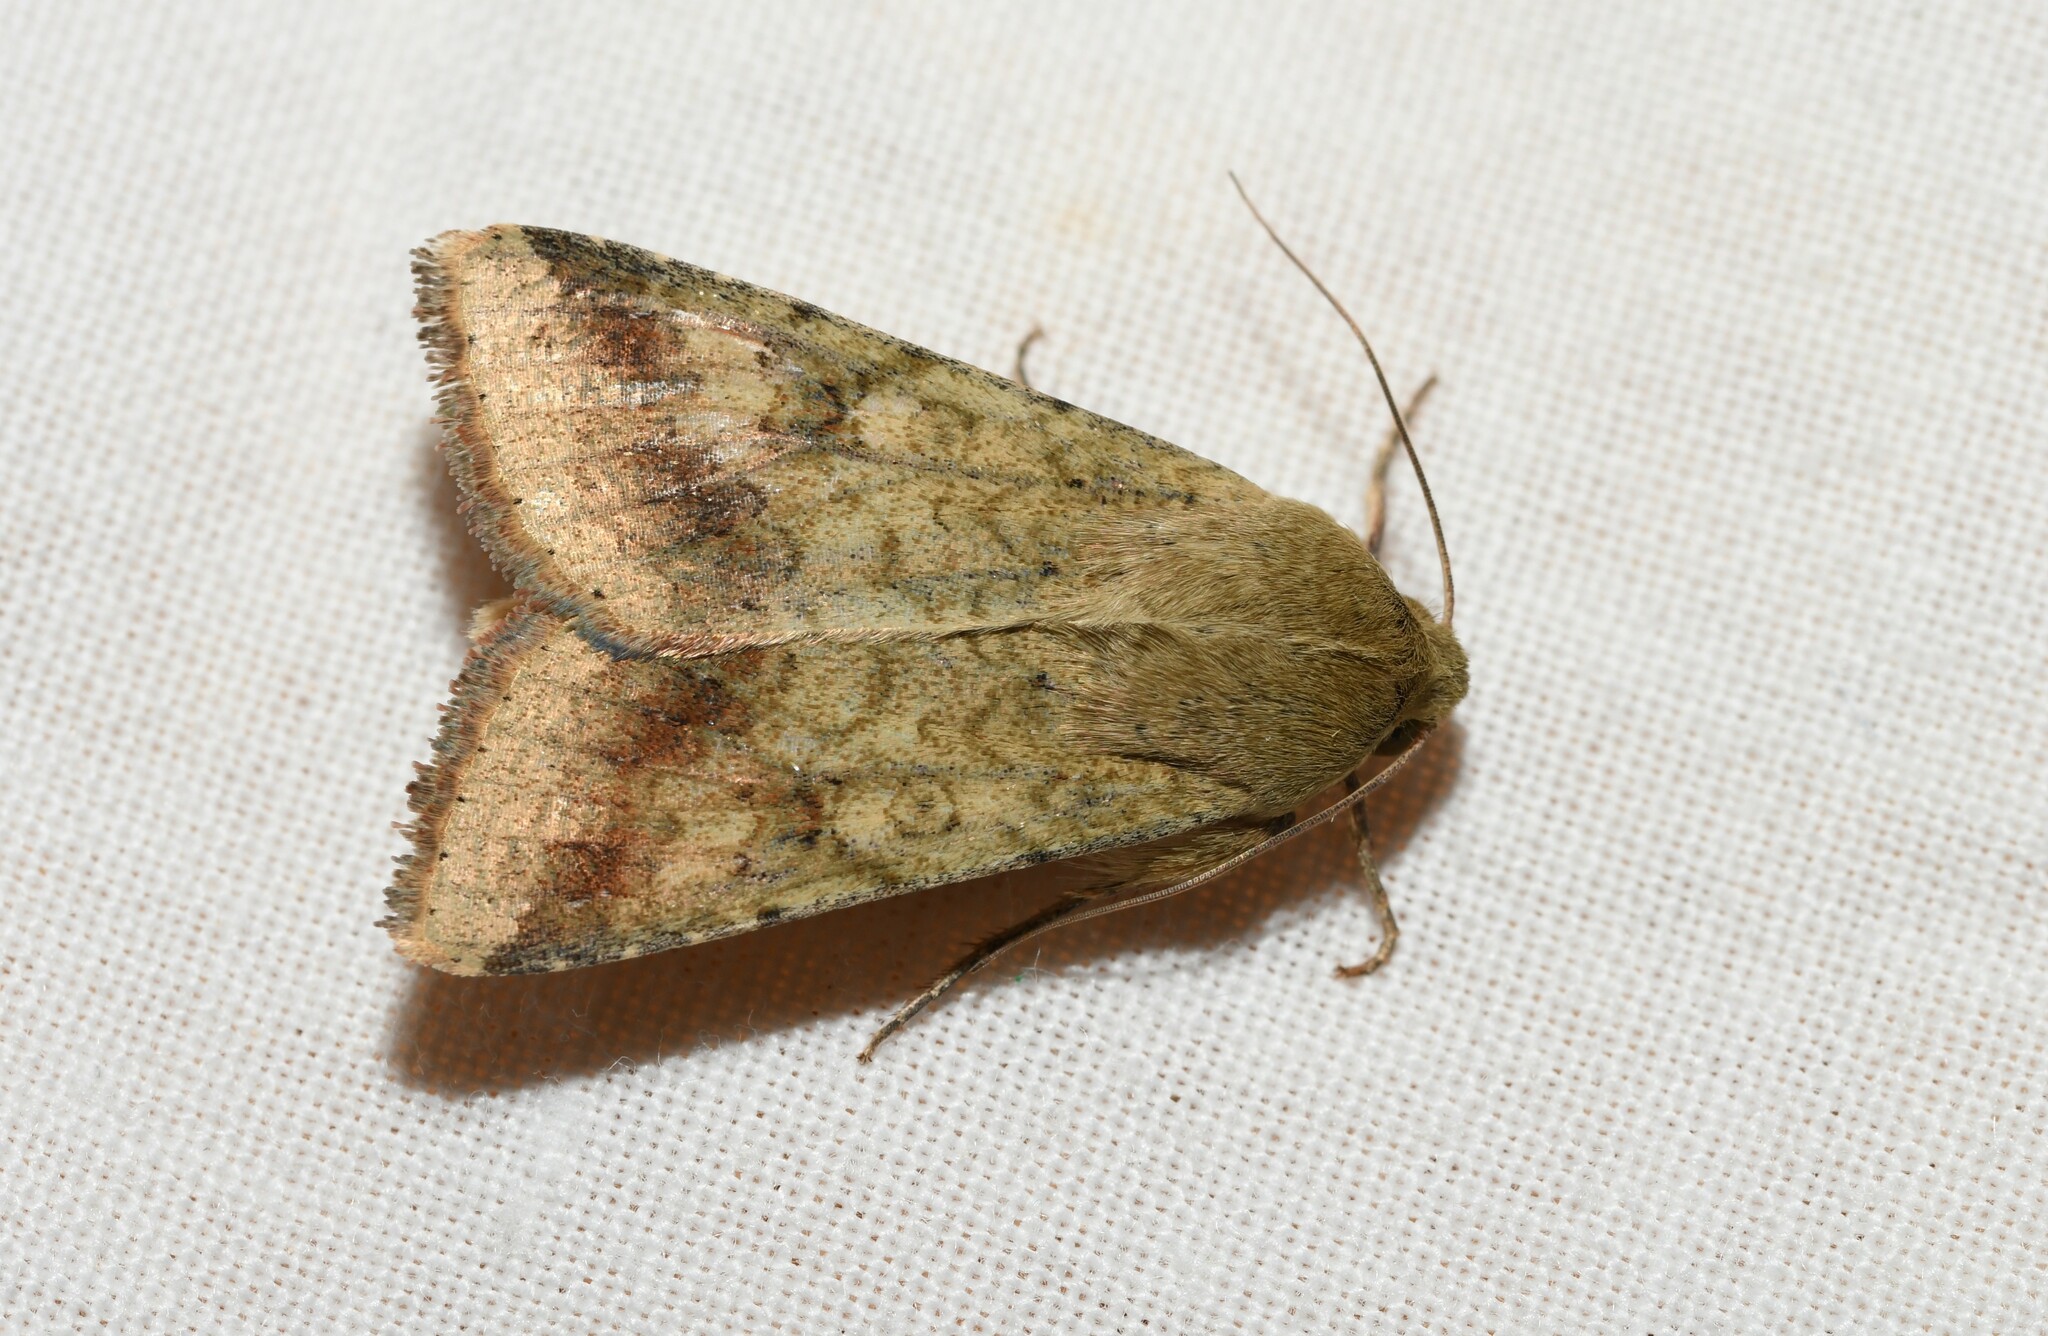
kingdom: Animalia
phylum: Arthropoda
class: Insecta
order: Lepidoptera
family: Noctuidae
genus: Helicoverpa
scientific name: Helicoverpa armigera
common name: Cotton bollworm
